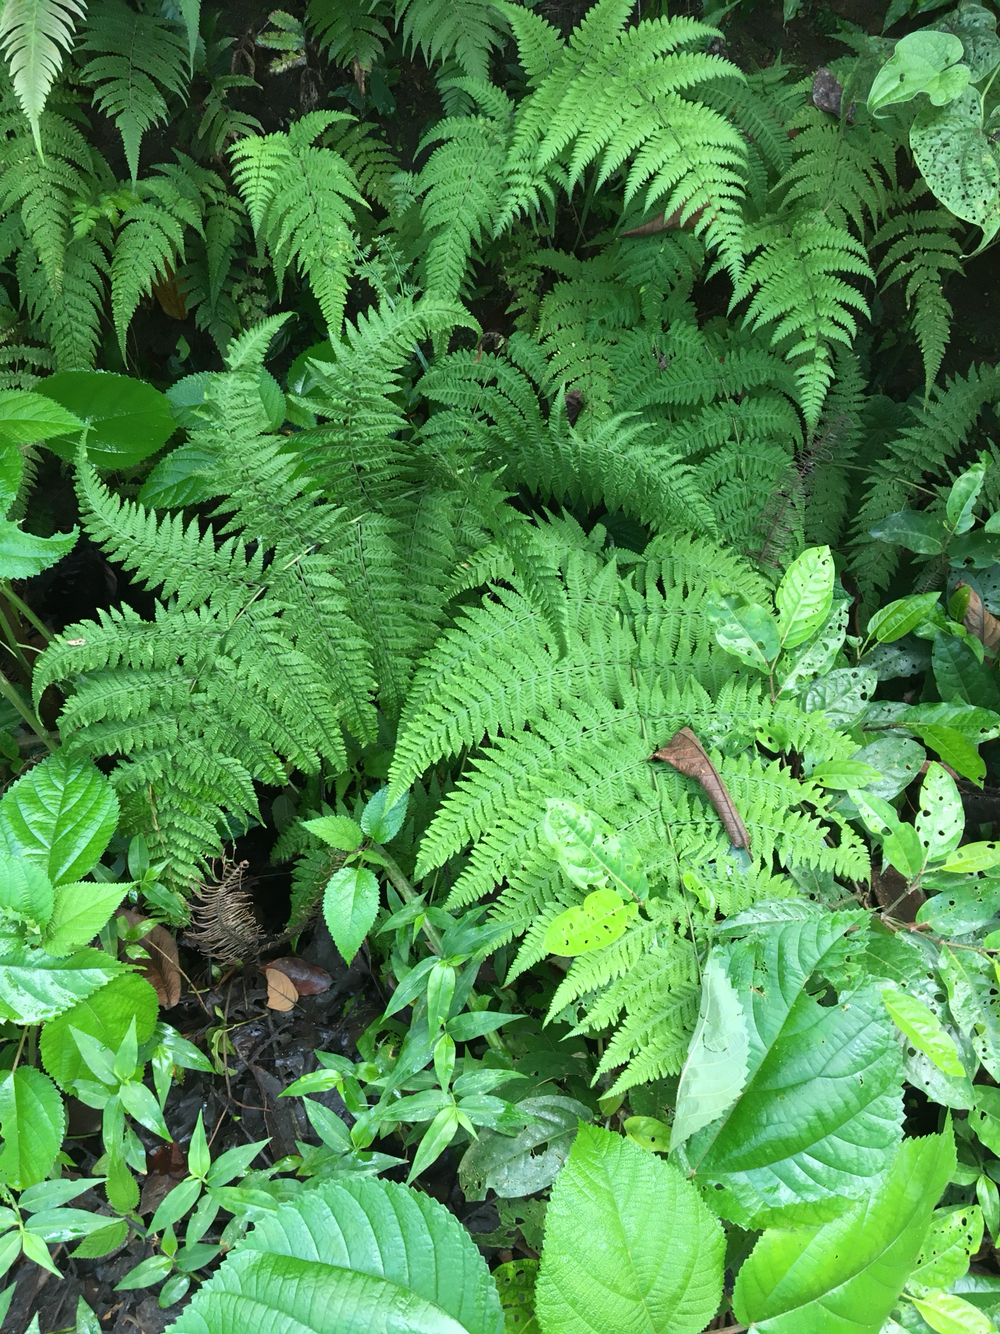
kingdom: Plantae
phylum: Tracheophyta
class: Polypodiopsida
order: Polypodiales
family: Thelypteridaceae
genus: Macrothelypteris
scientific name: Macrothelypteris torresiana
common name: Swordfern
